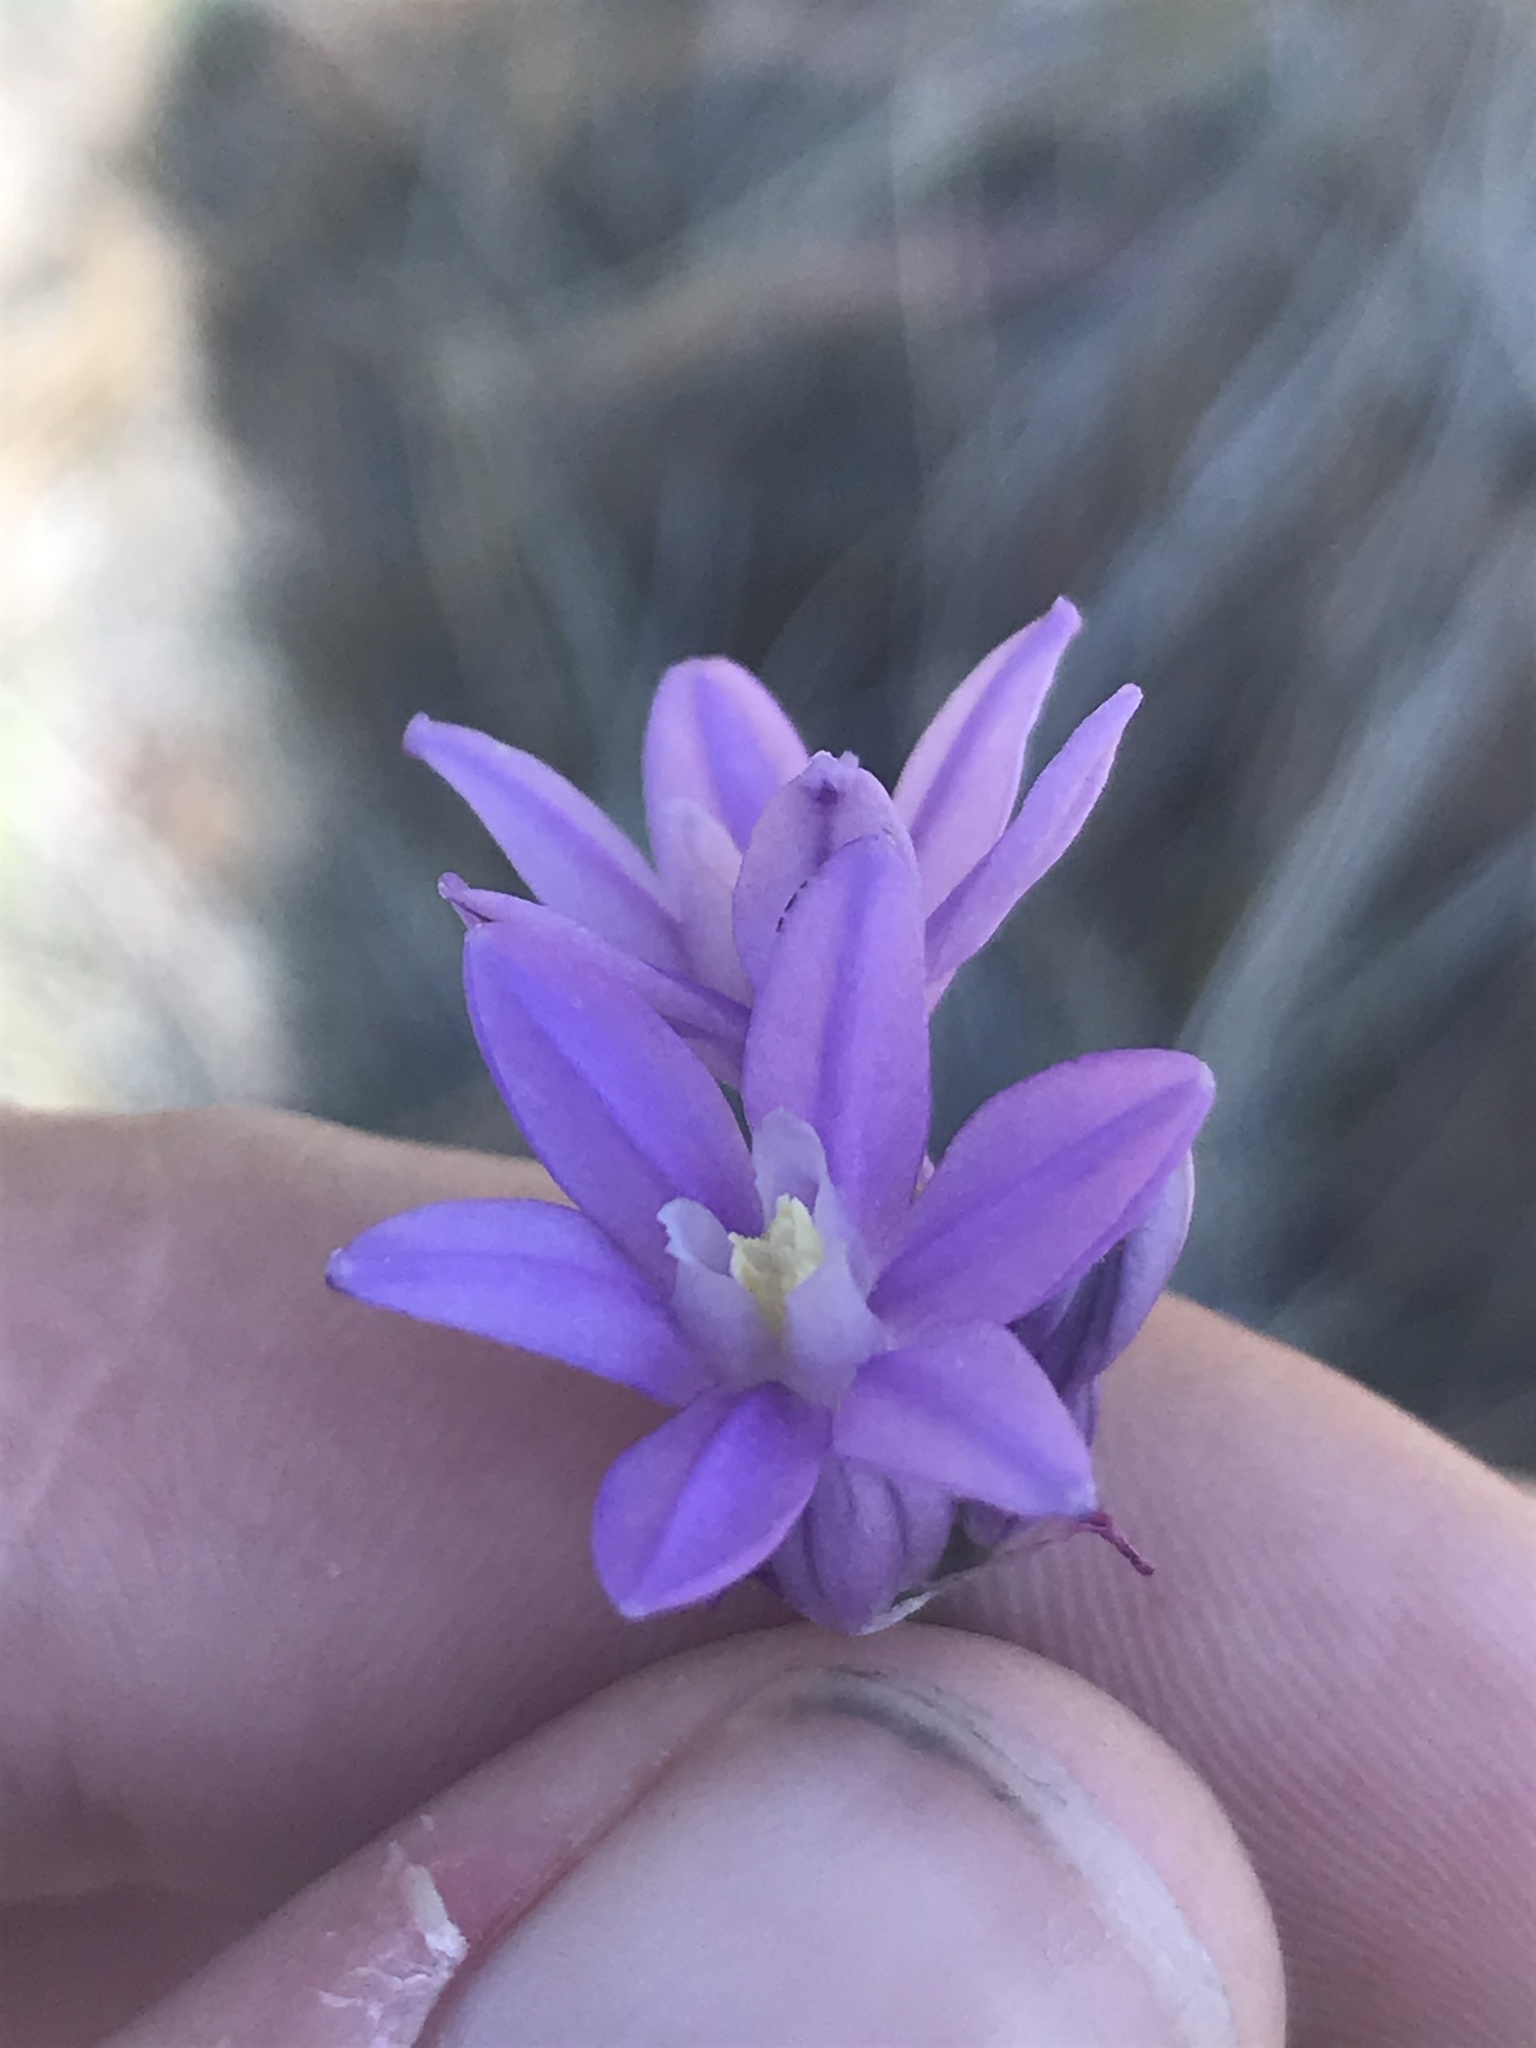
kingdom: Plantae
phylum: Tracheophyta
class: Liliopsida
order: Asparagales
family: Asparagaceae
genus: Dichelostemma
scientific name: Dichelostemma multiflorum
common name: Round-tooth ookow
